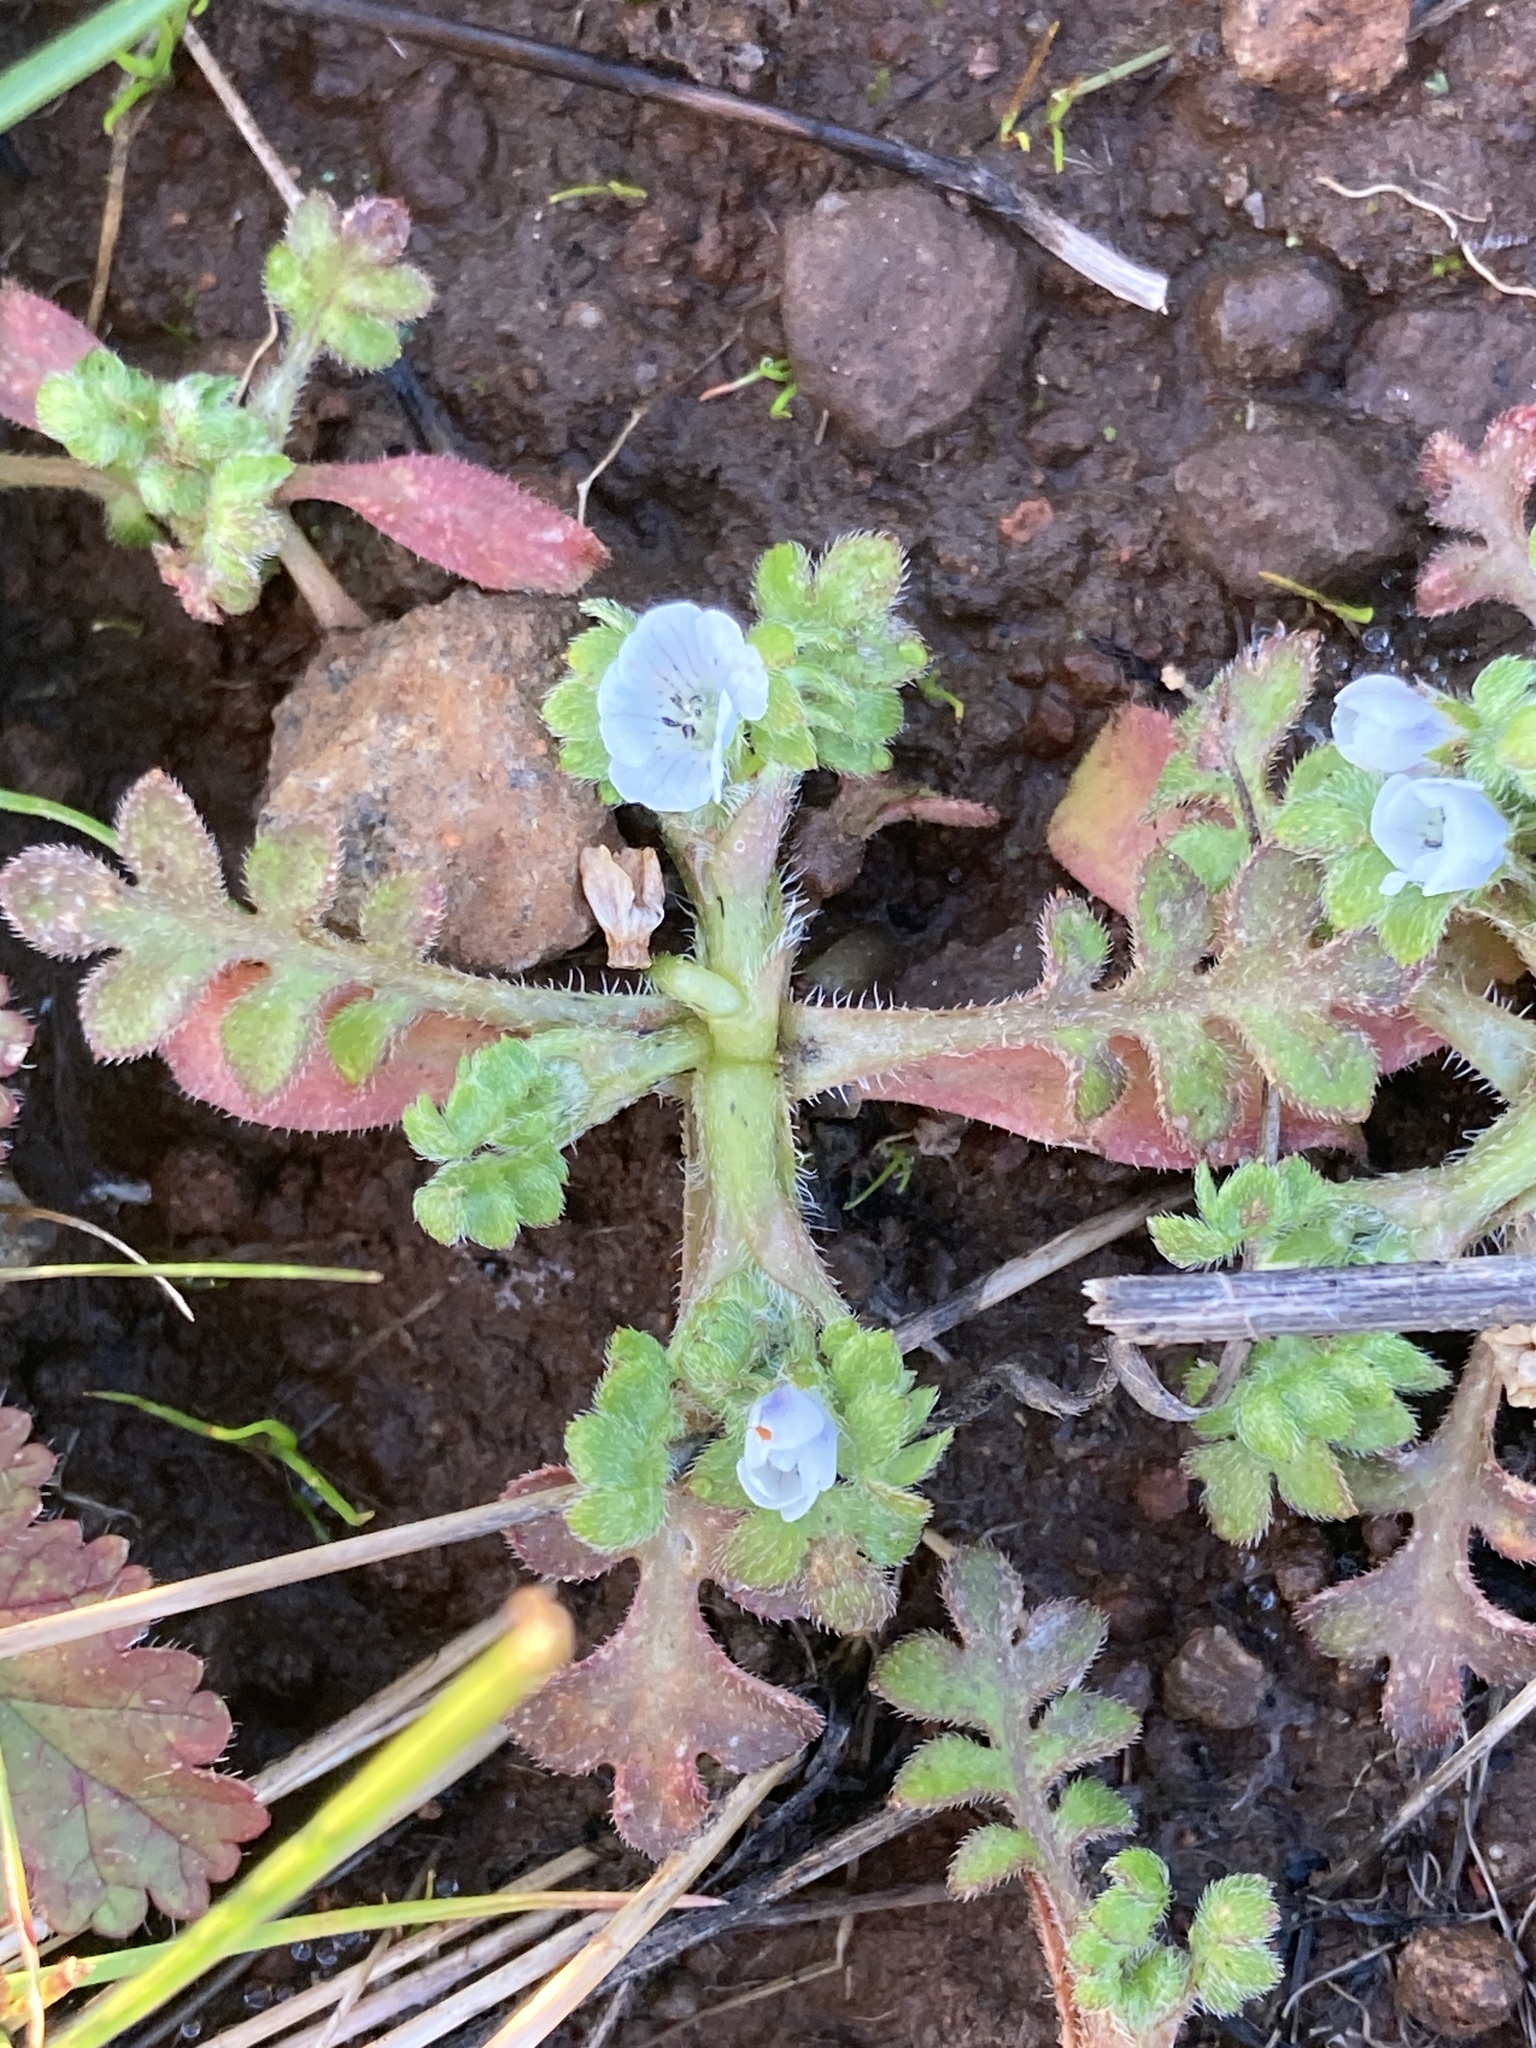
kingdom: Plantae
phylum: Tracheophyta
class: Magnoliopsida
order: Boraginales
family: Hydrophyllaceae
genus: Nemophila
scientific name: Nemophila pedunculata
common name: Little-foot baby-blue-eyes
